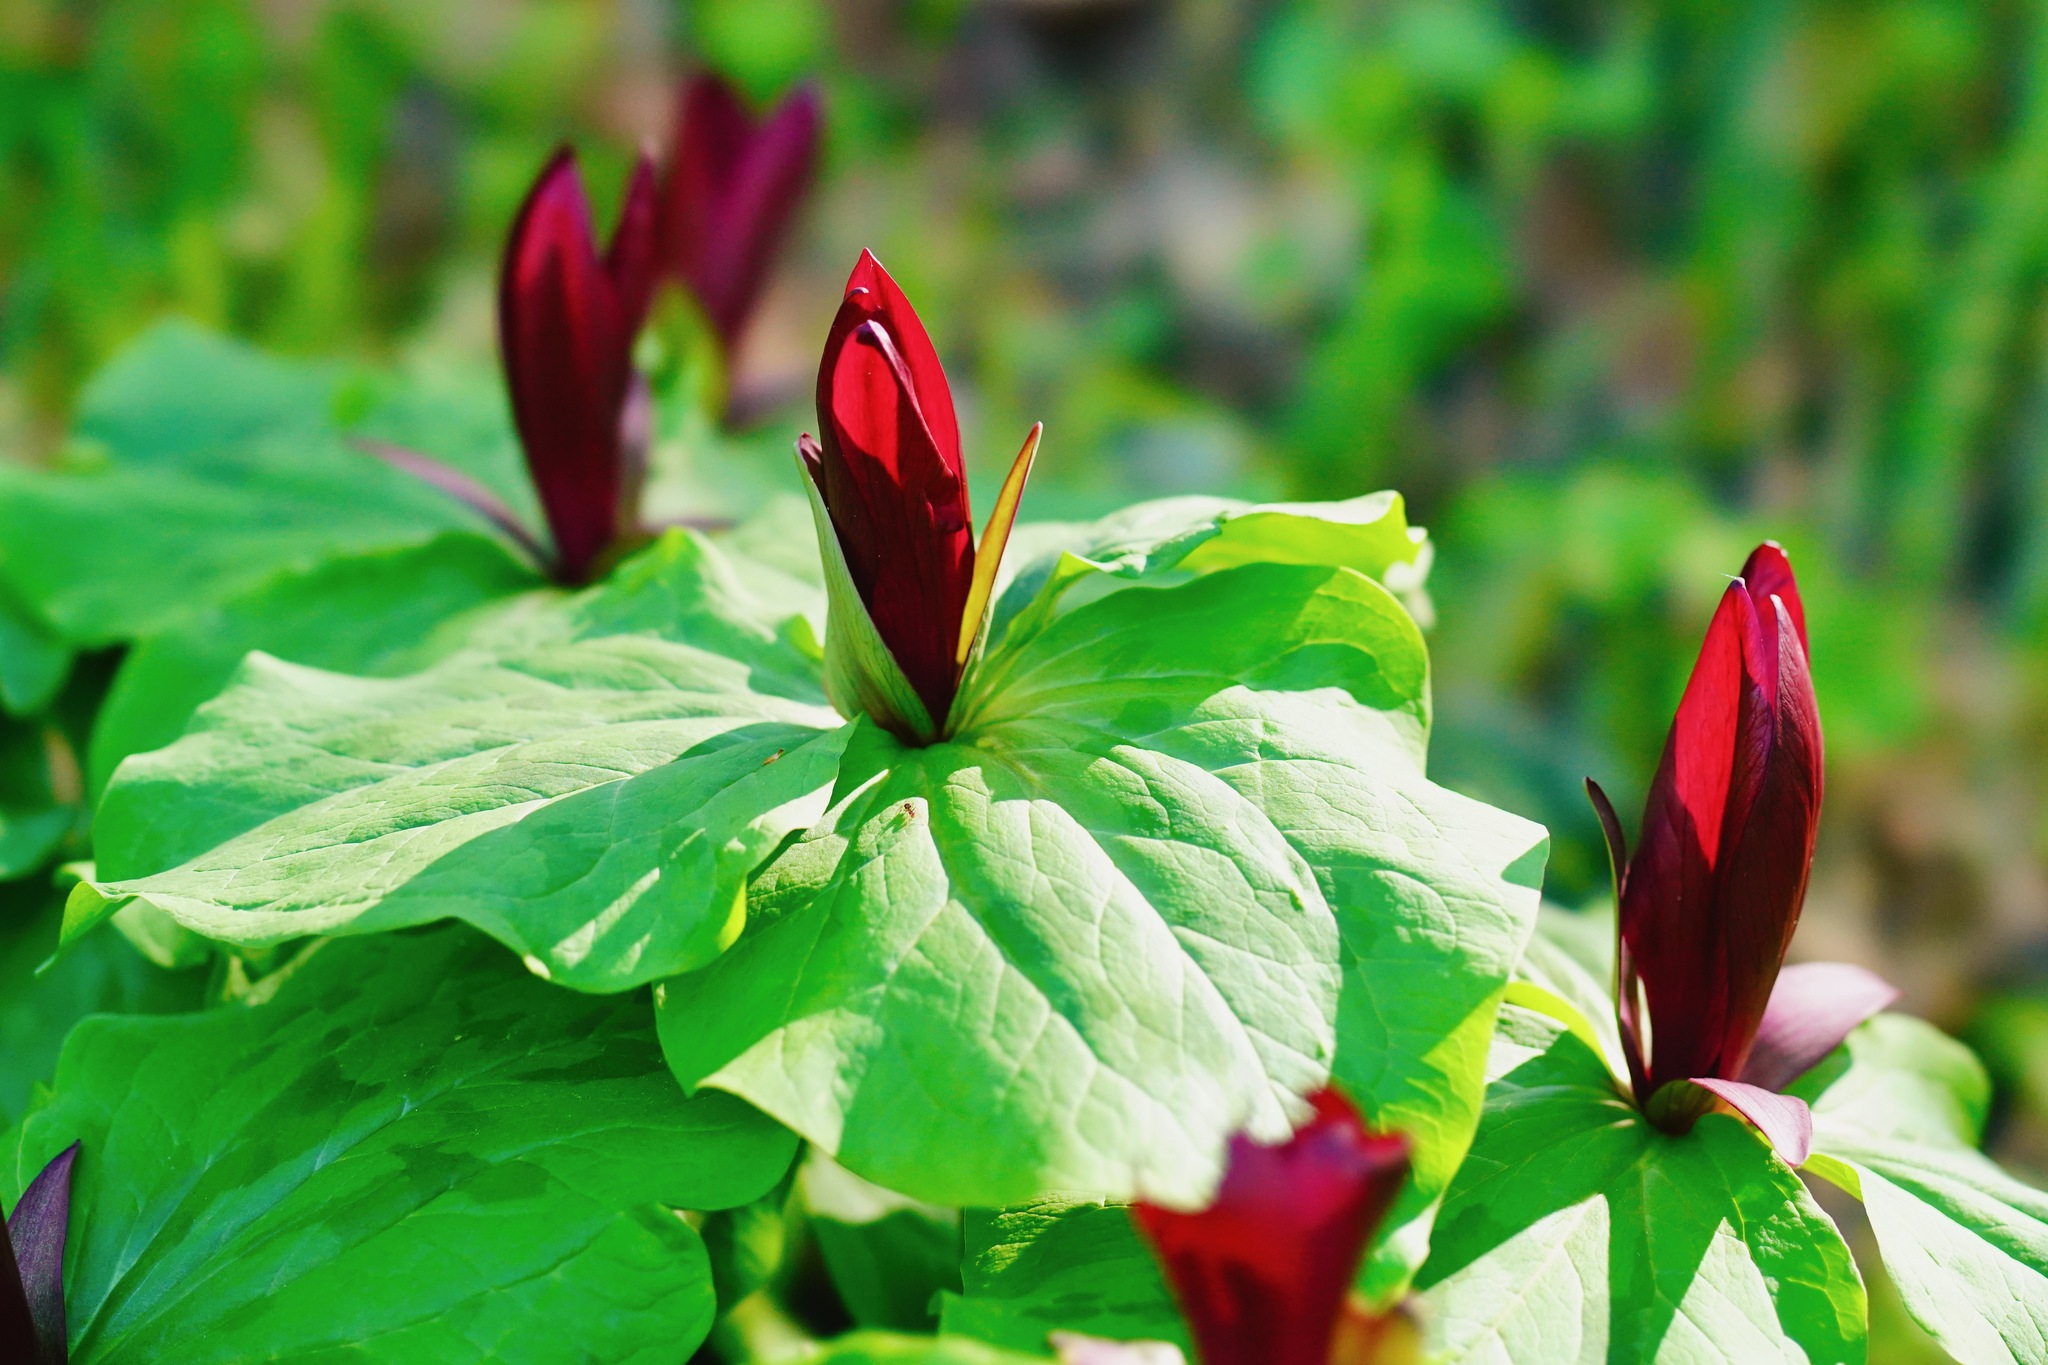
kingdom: Plantae
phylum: Tracheophyta
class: Liliopsida
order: Liliales
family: Melanthiaceae
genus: Trillium
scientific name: Trillium chloropetalum
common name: Giant trillium
